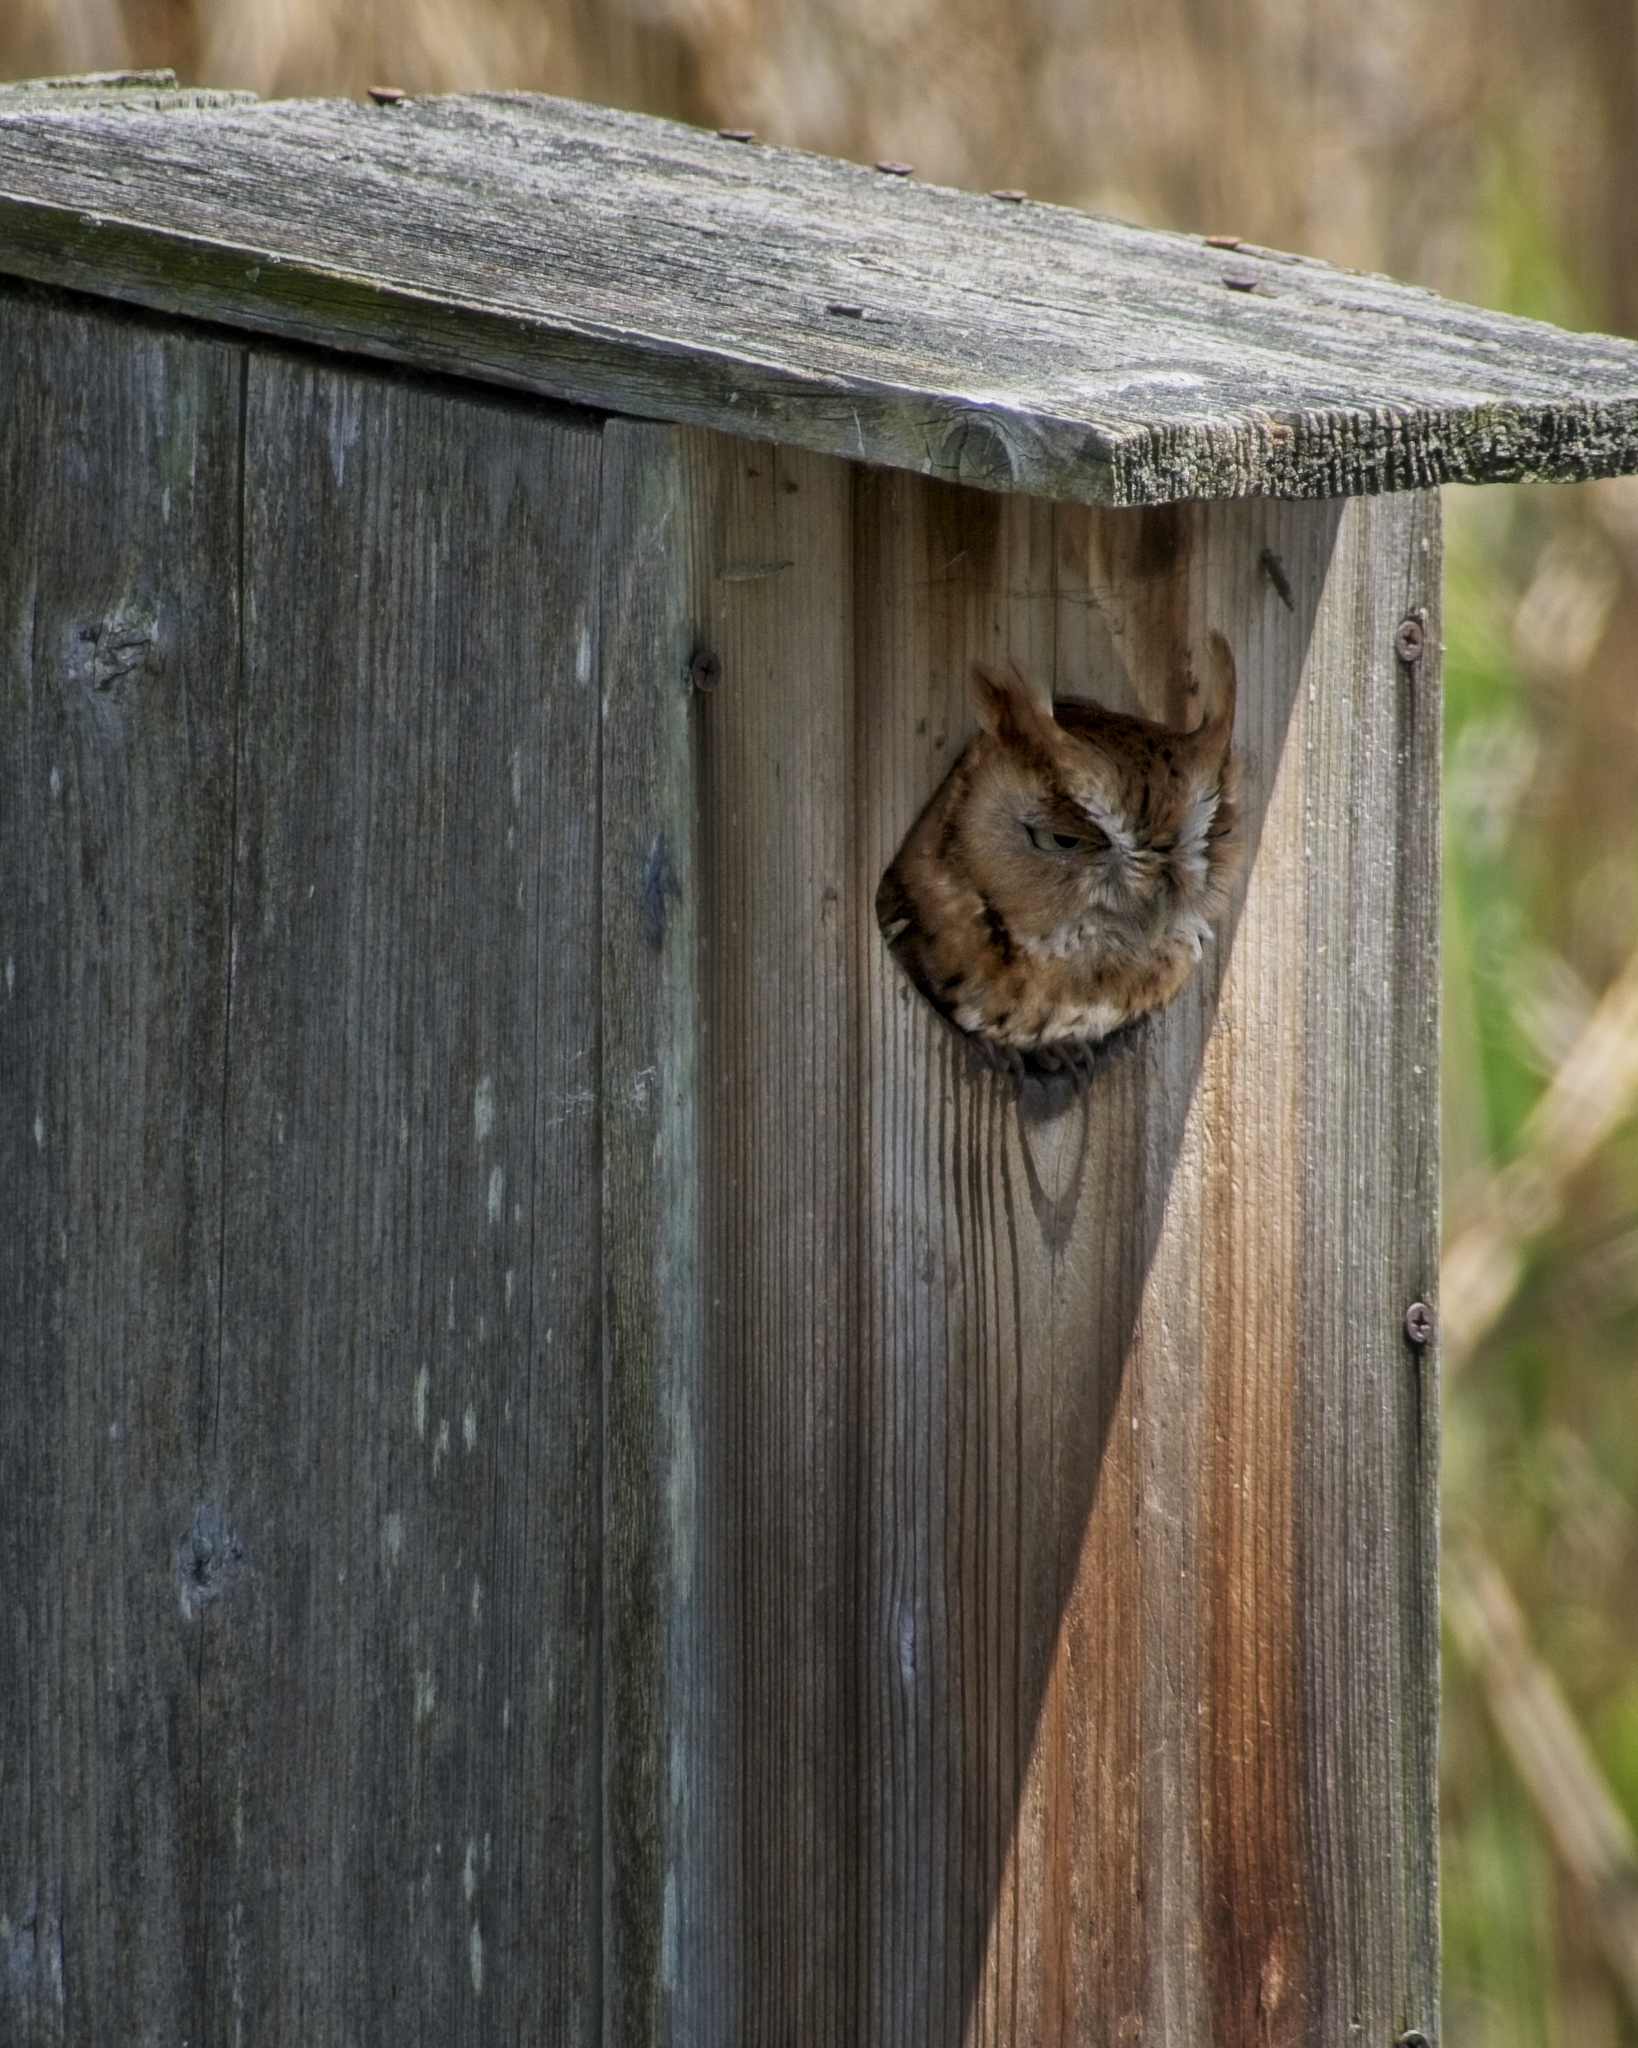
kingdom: Animalia
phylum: Chordata
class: Aves
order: Strigiformes
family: Strigidae
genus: Megascops
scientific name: Megascops asio
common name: Eastern screech-owl
